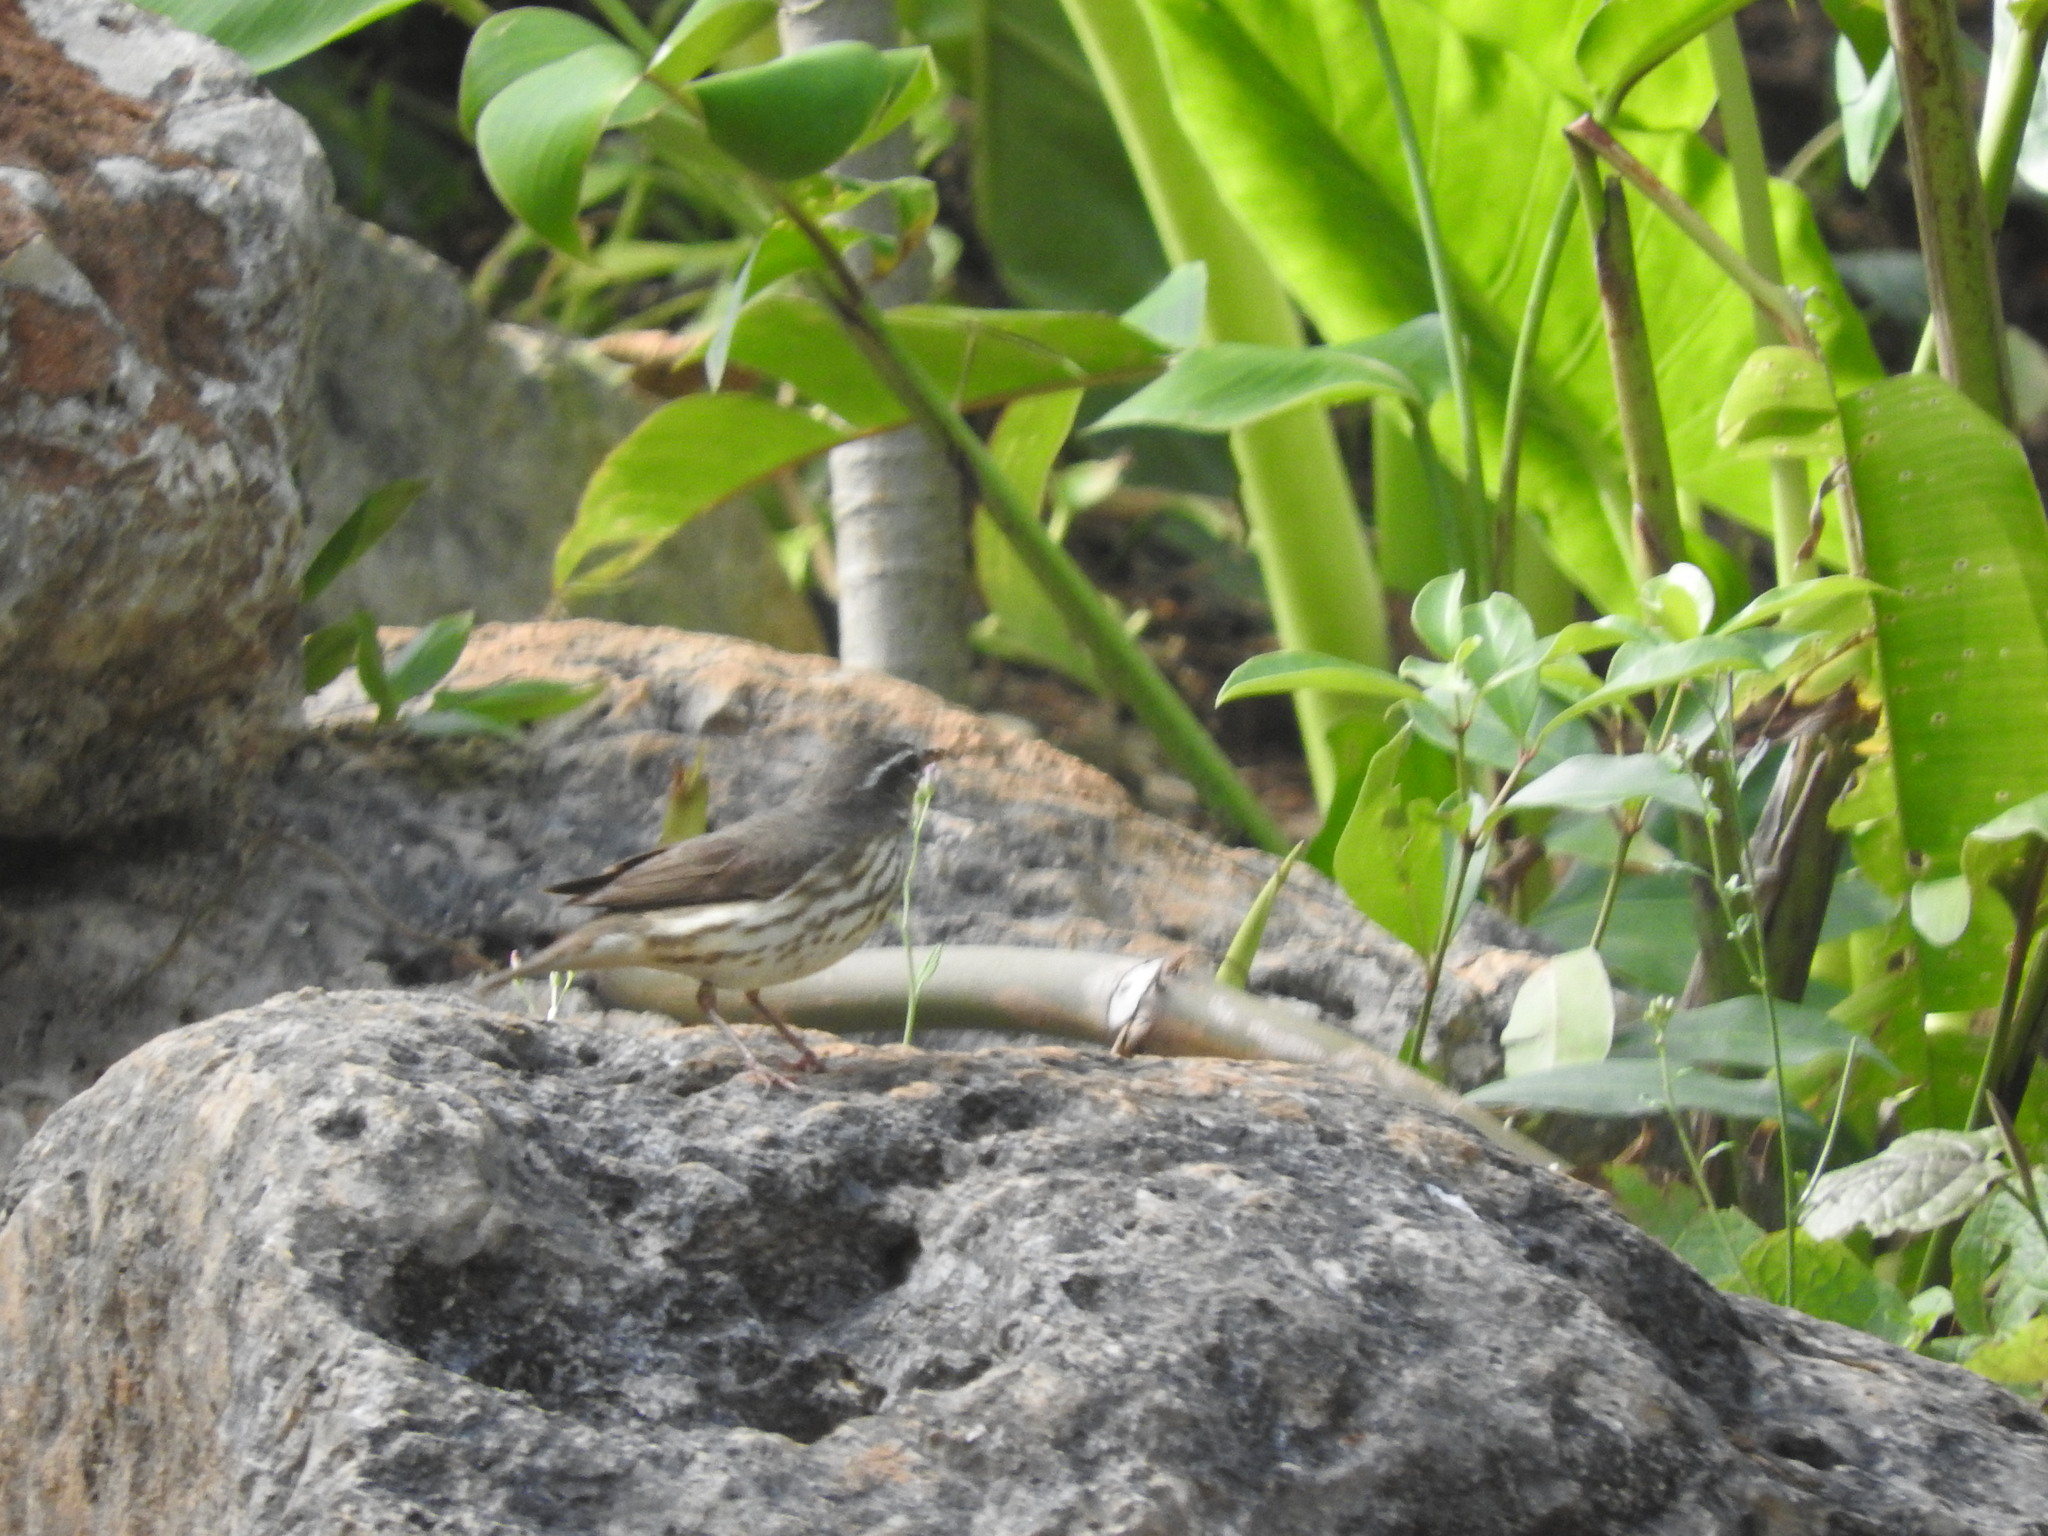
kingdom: Animalia
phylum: Chordata
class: Aves
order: Passeriformes
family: Parulidae
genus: Parkesia
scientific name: Parkesia motacilla
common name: Louisiana waterthrush
